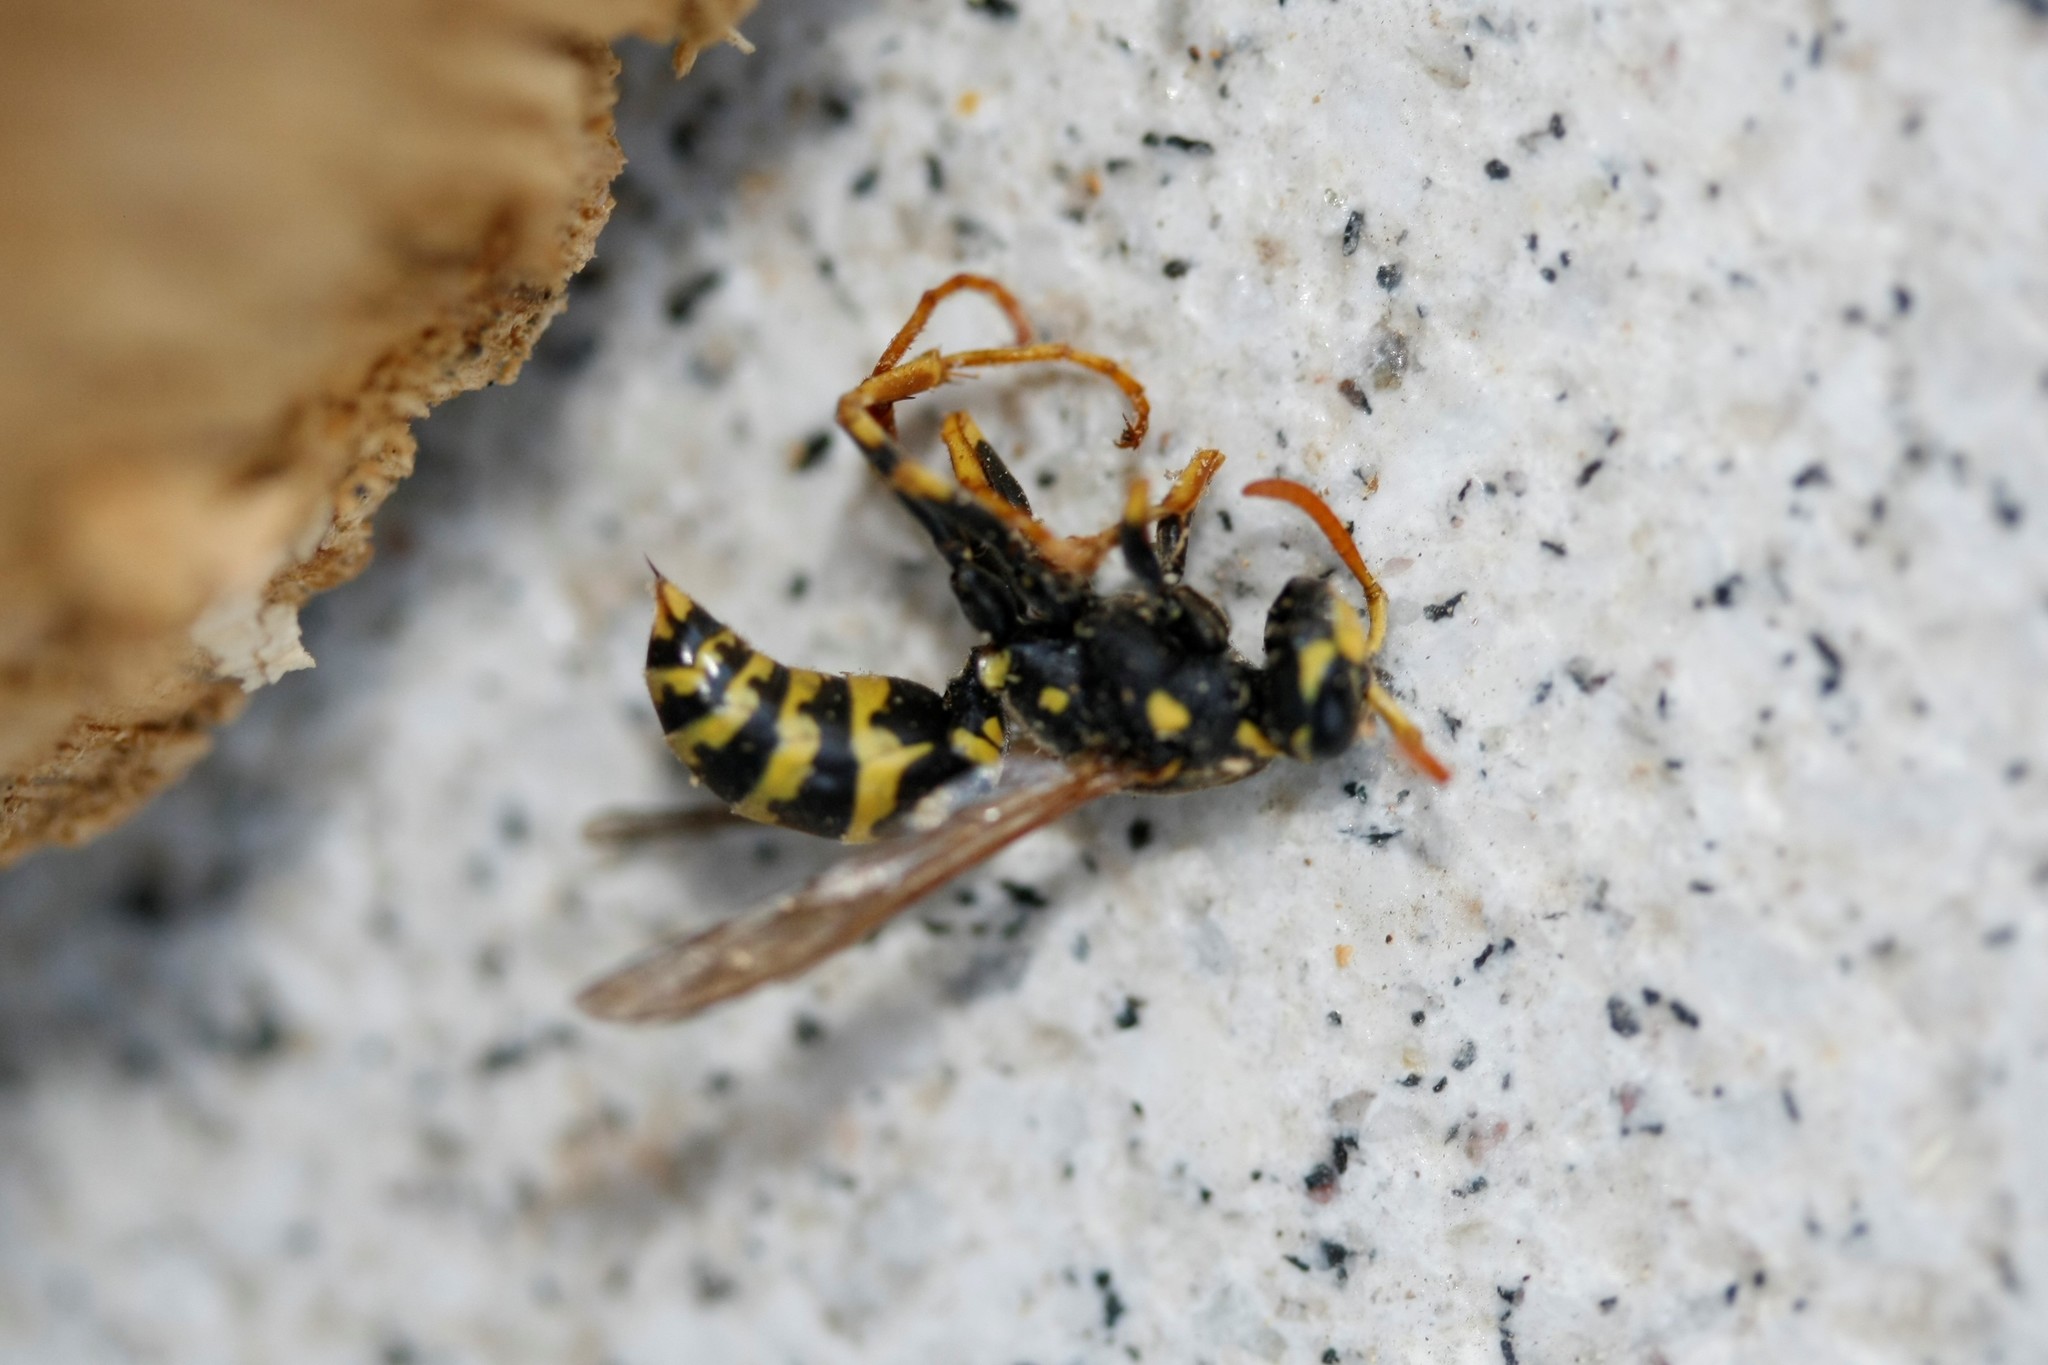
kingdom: Animalia
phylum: Arthropoda
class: Insecta
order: Hymenoptera
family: Eumenidae
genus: Polistes
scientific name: Polistes dominula
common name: Paper wasp
